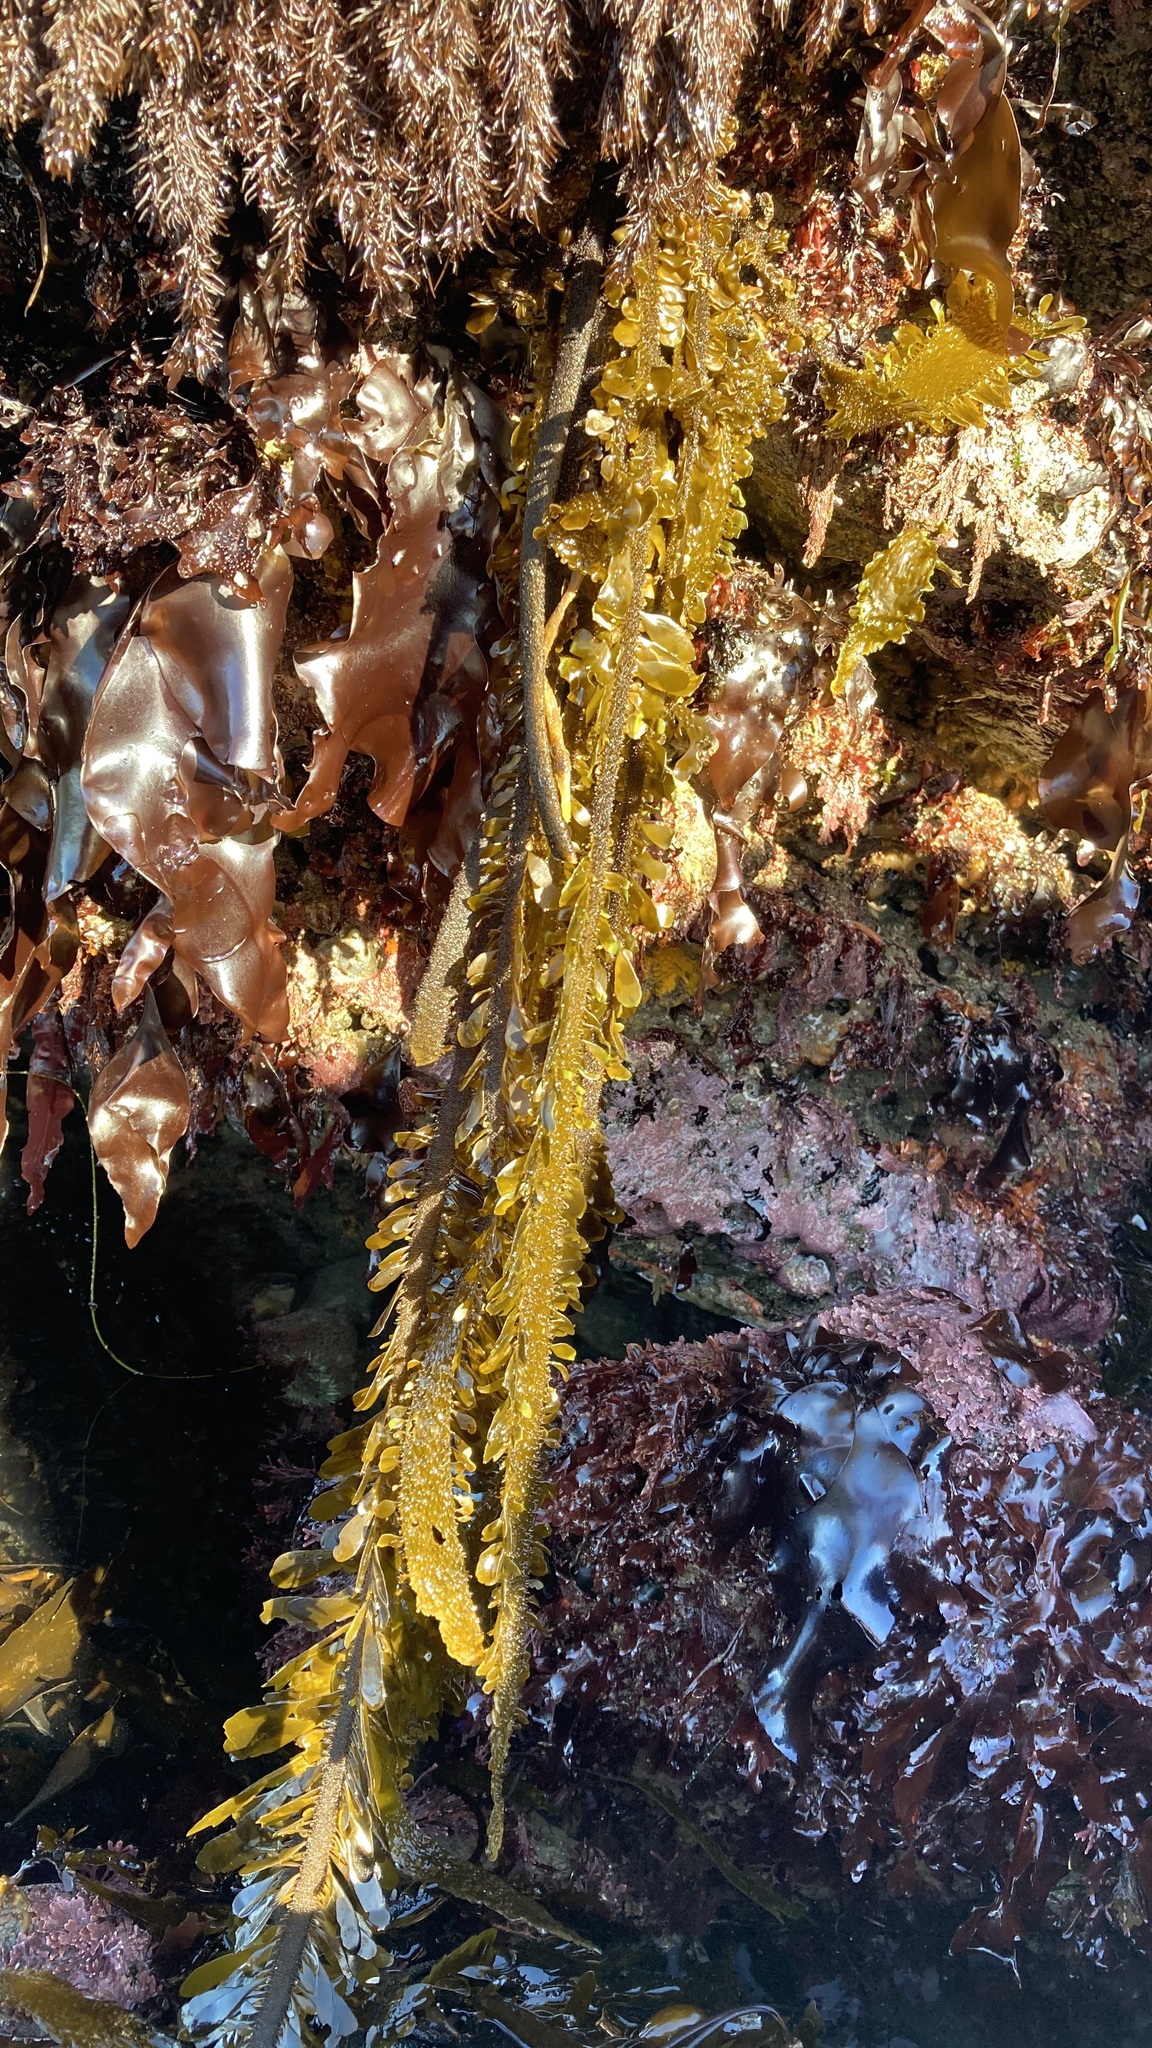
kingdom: Chromista
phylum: Ochrophyta
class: Phaeophyceae
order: Laminariales
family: Lessoniaceae
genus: Egregia
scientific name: Egregia menziesii
